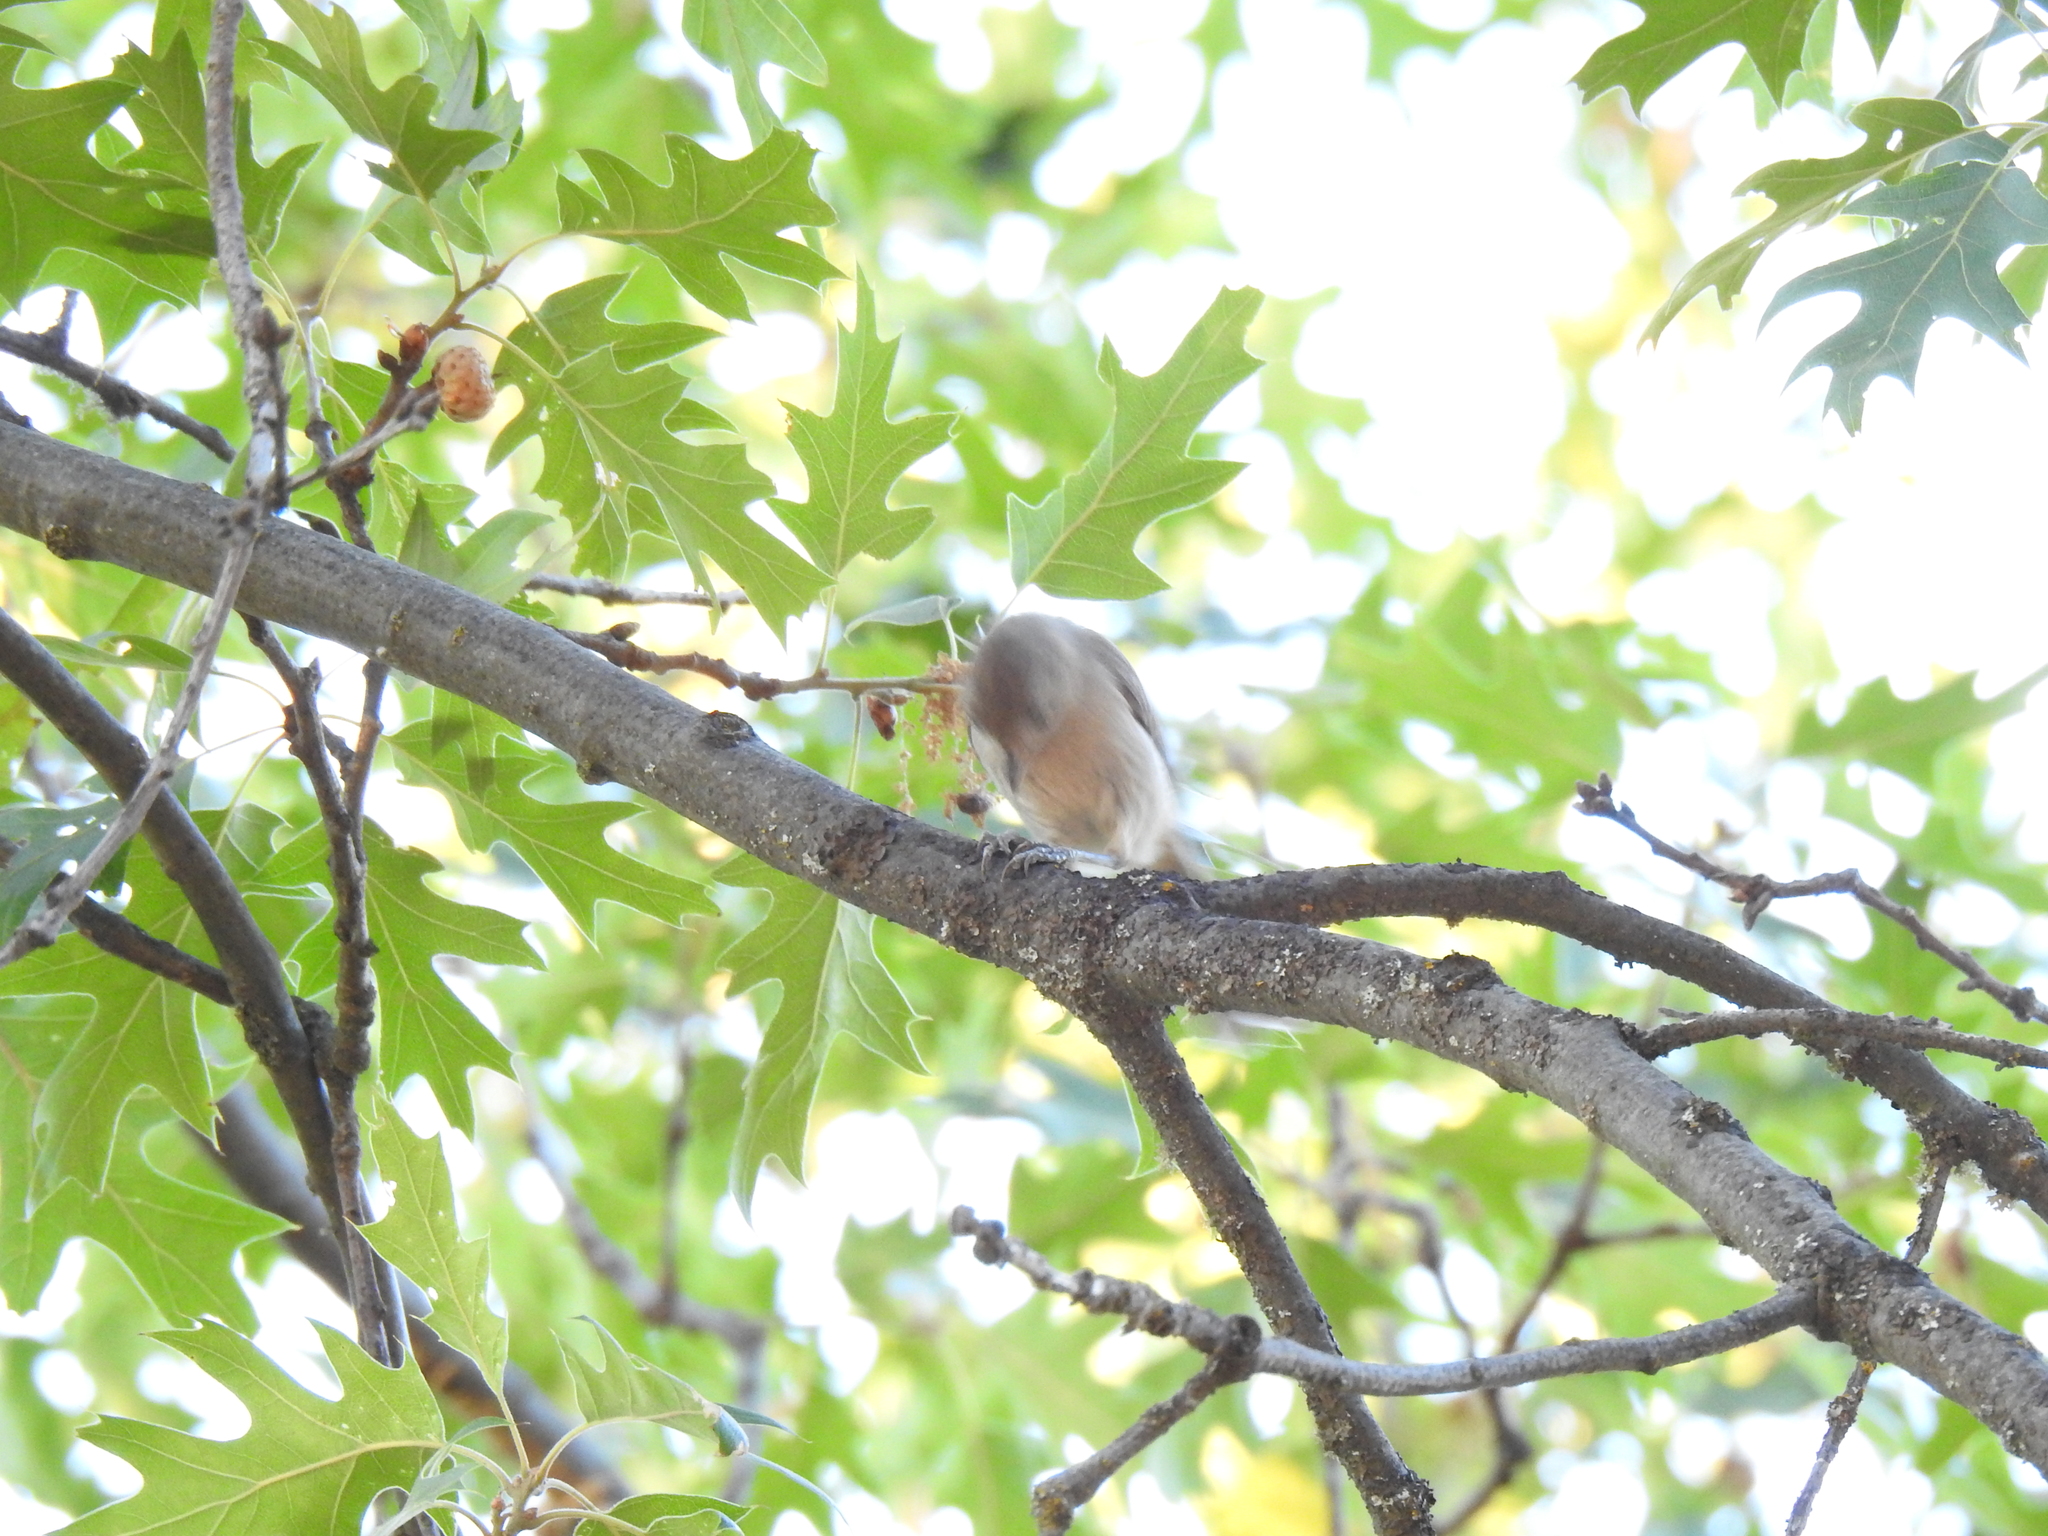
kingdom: Animalia
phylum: Chordata
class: Aves
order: Passeriformes
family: Paridae
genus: Baeolophus
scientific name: Baeolophus inornatus
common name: Oak titmouse
